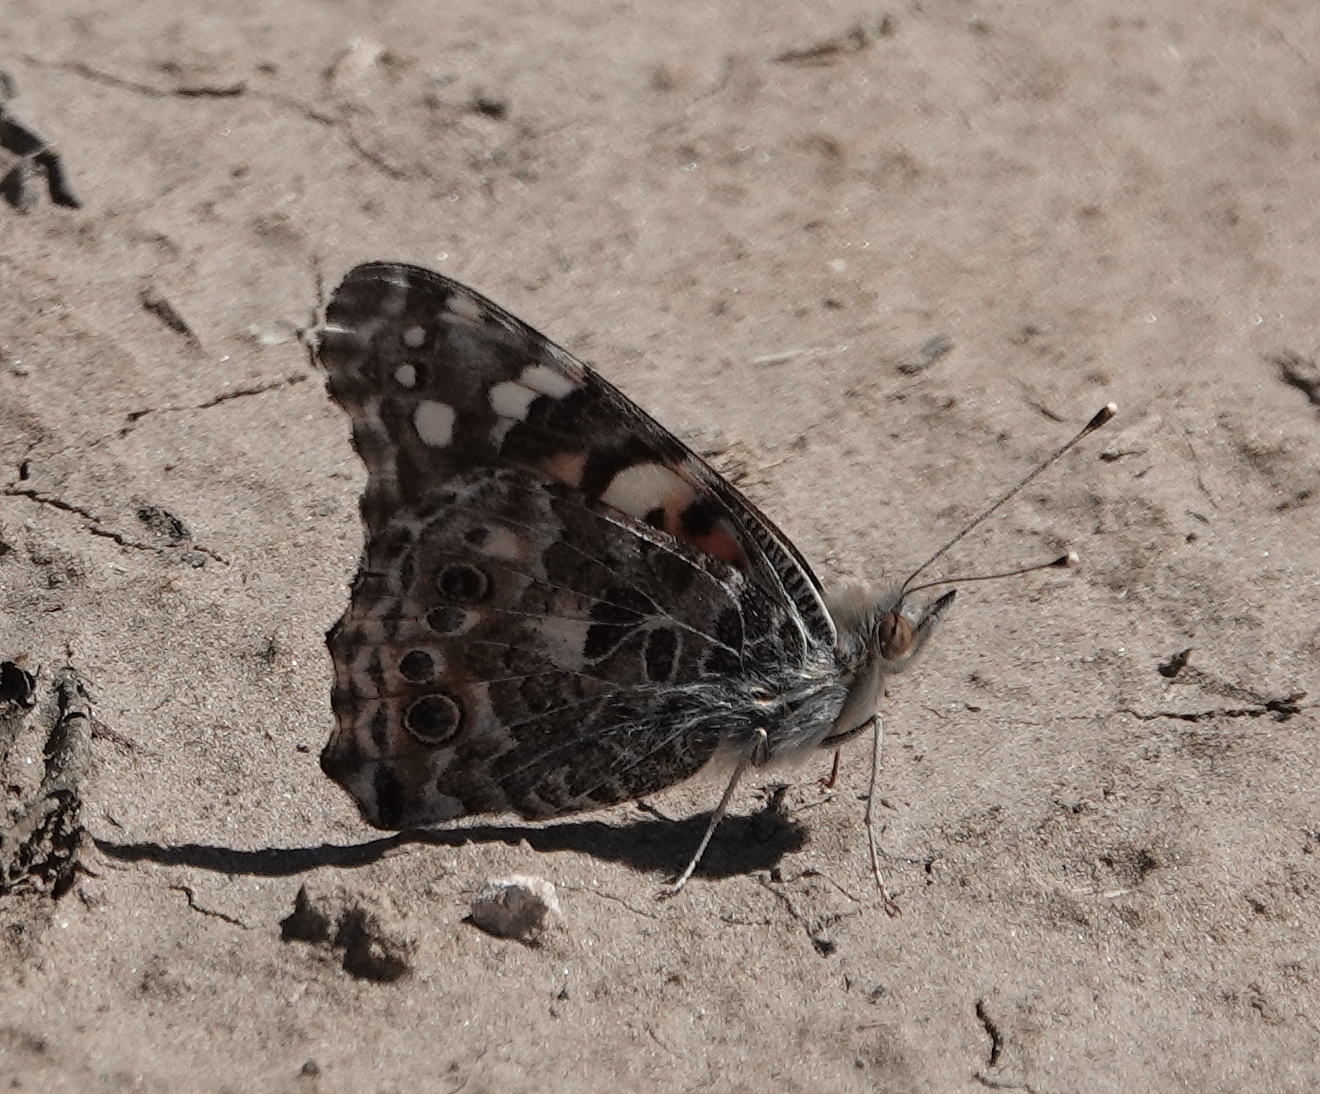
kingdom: Animalia
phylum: Arthropoda
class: Insecta
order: Lepidoptera
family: Nymphalidae
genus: Vanessa
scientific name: Vanessa cardui
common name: Painted lady
